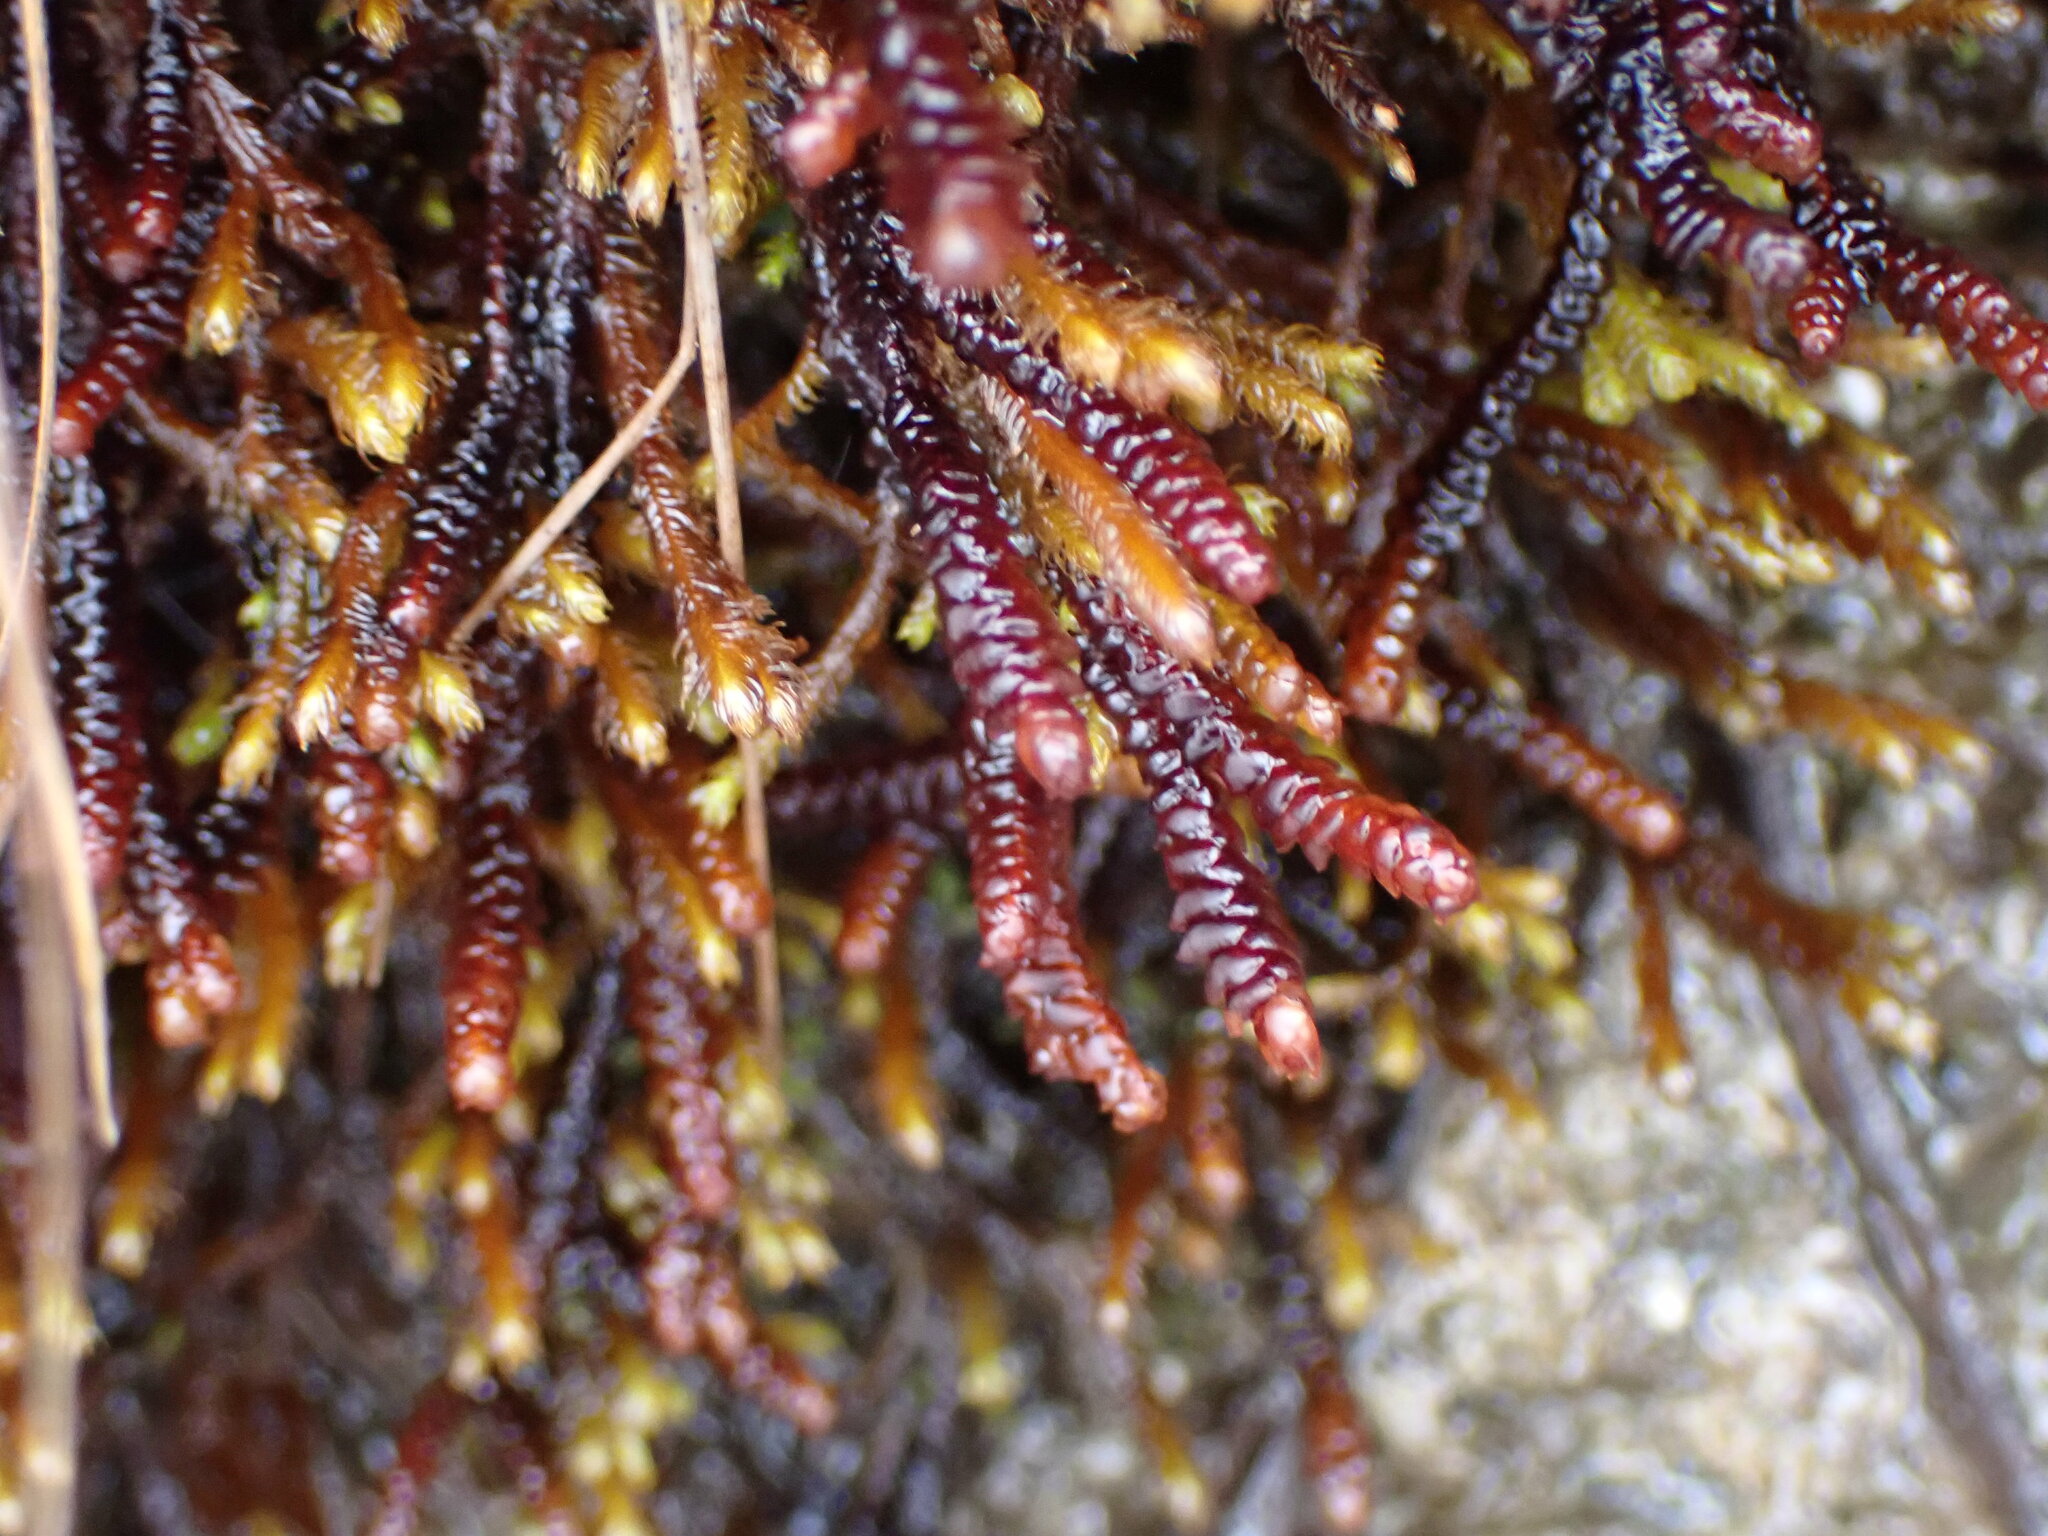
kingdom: Plantae
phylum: Marchantiophyta
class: Jungermanniopsida
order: Pleuroziales
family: Pleuroziaceae
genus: Pleurozia
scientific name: Pleurozia purpurea
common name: Purple spoonwort
